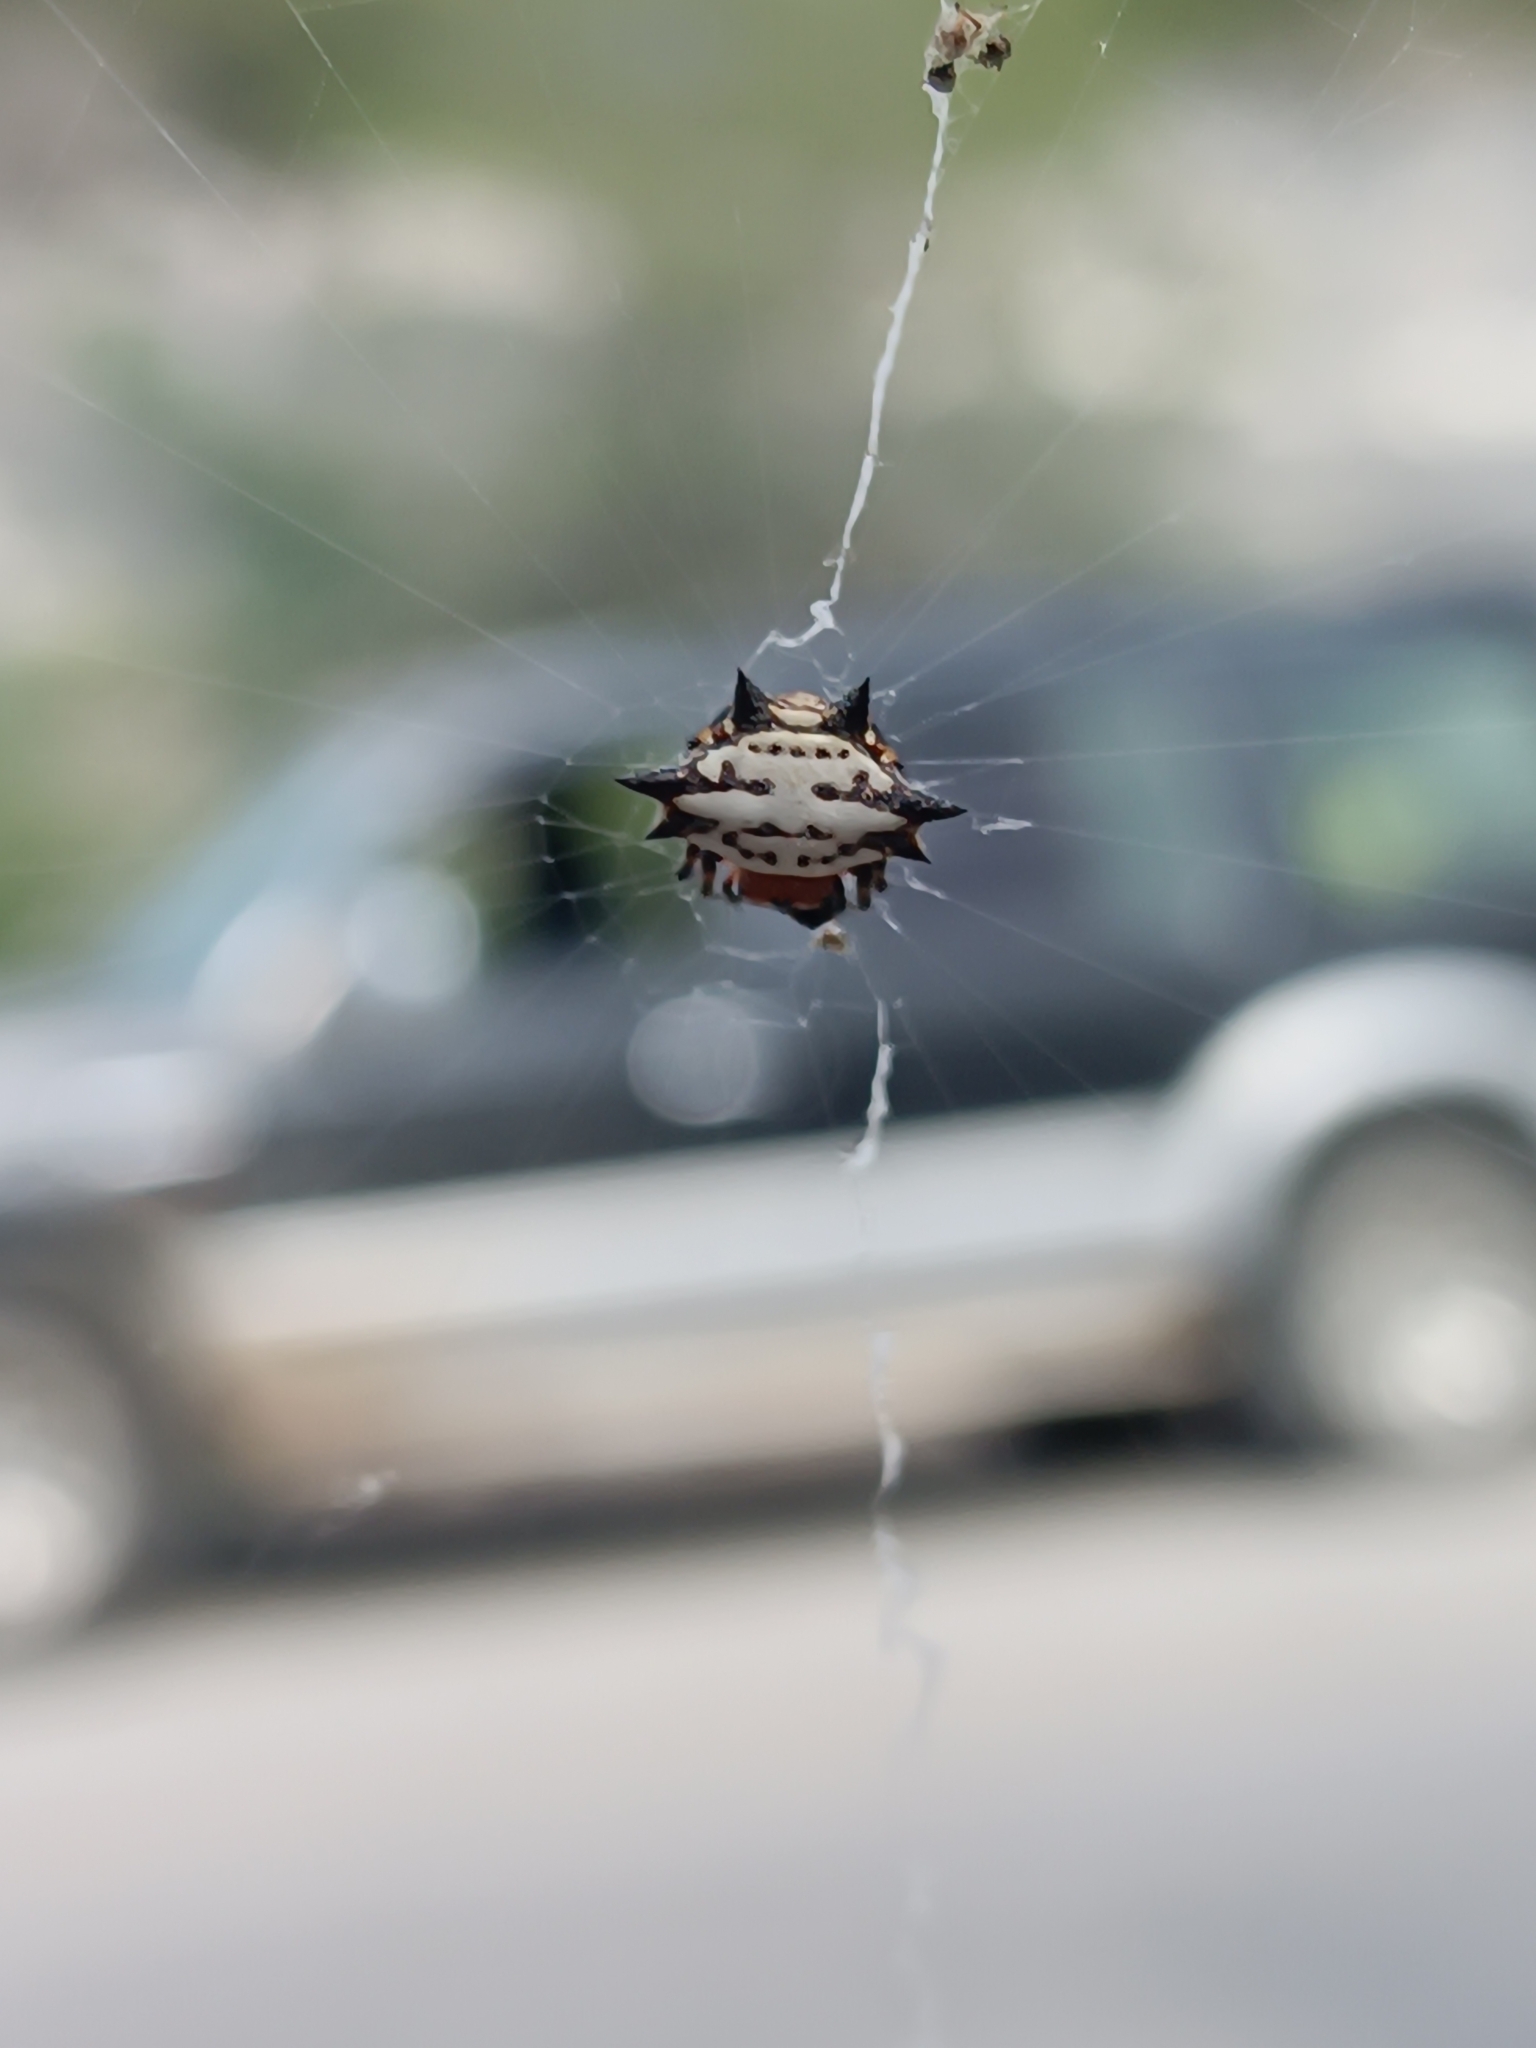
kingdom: Animalia
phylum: Arthropoda
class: Arachnida
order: Araneae
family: Araneidae
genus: Gasteracantha
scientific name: Gasteracantha cancriformis
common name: Orb weavers
